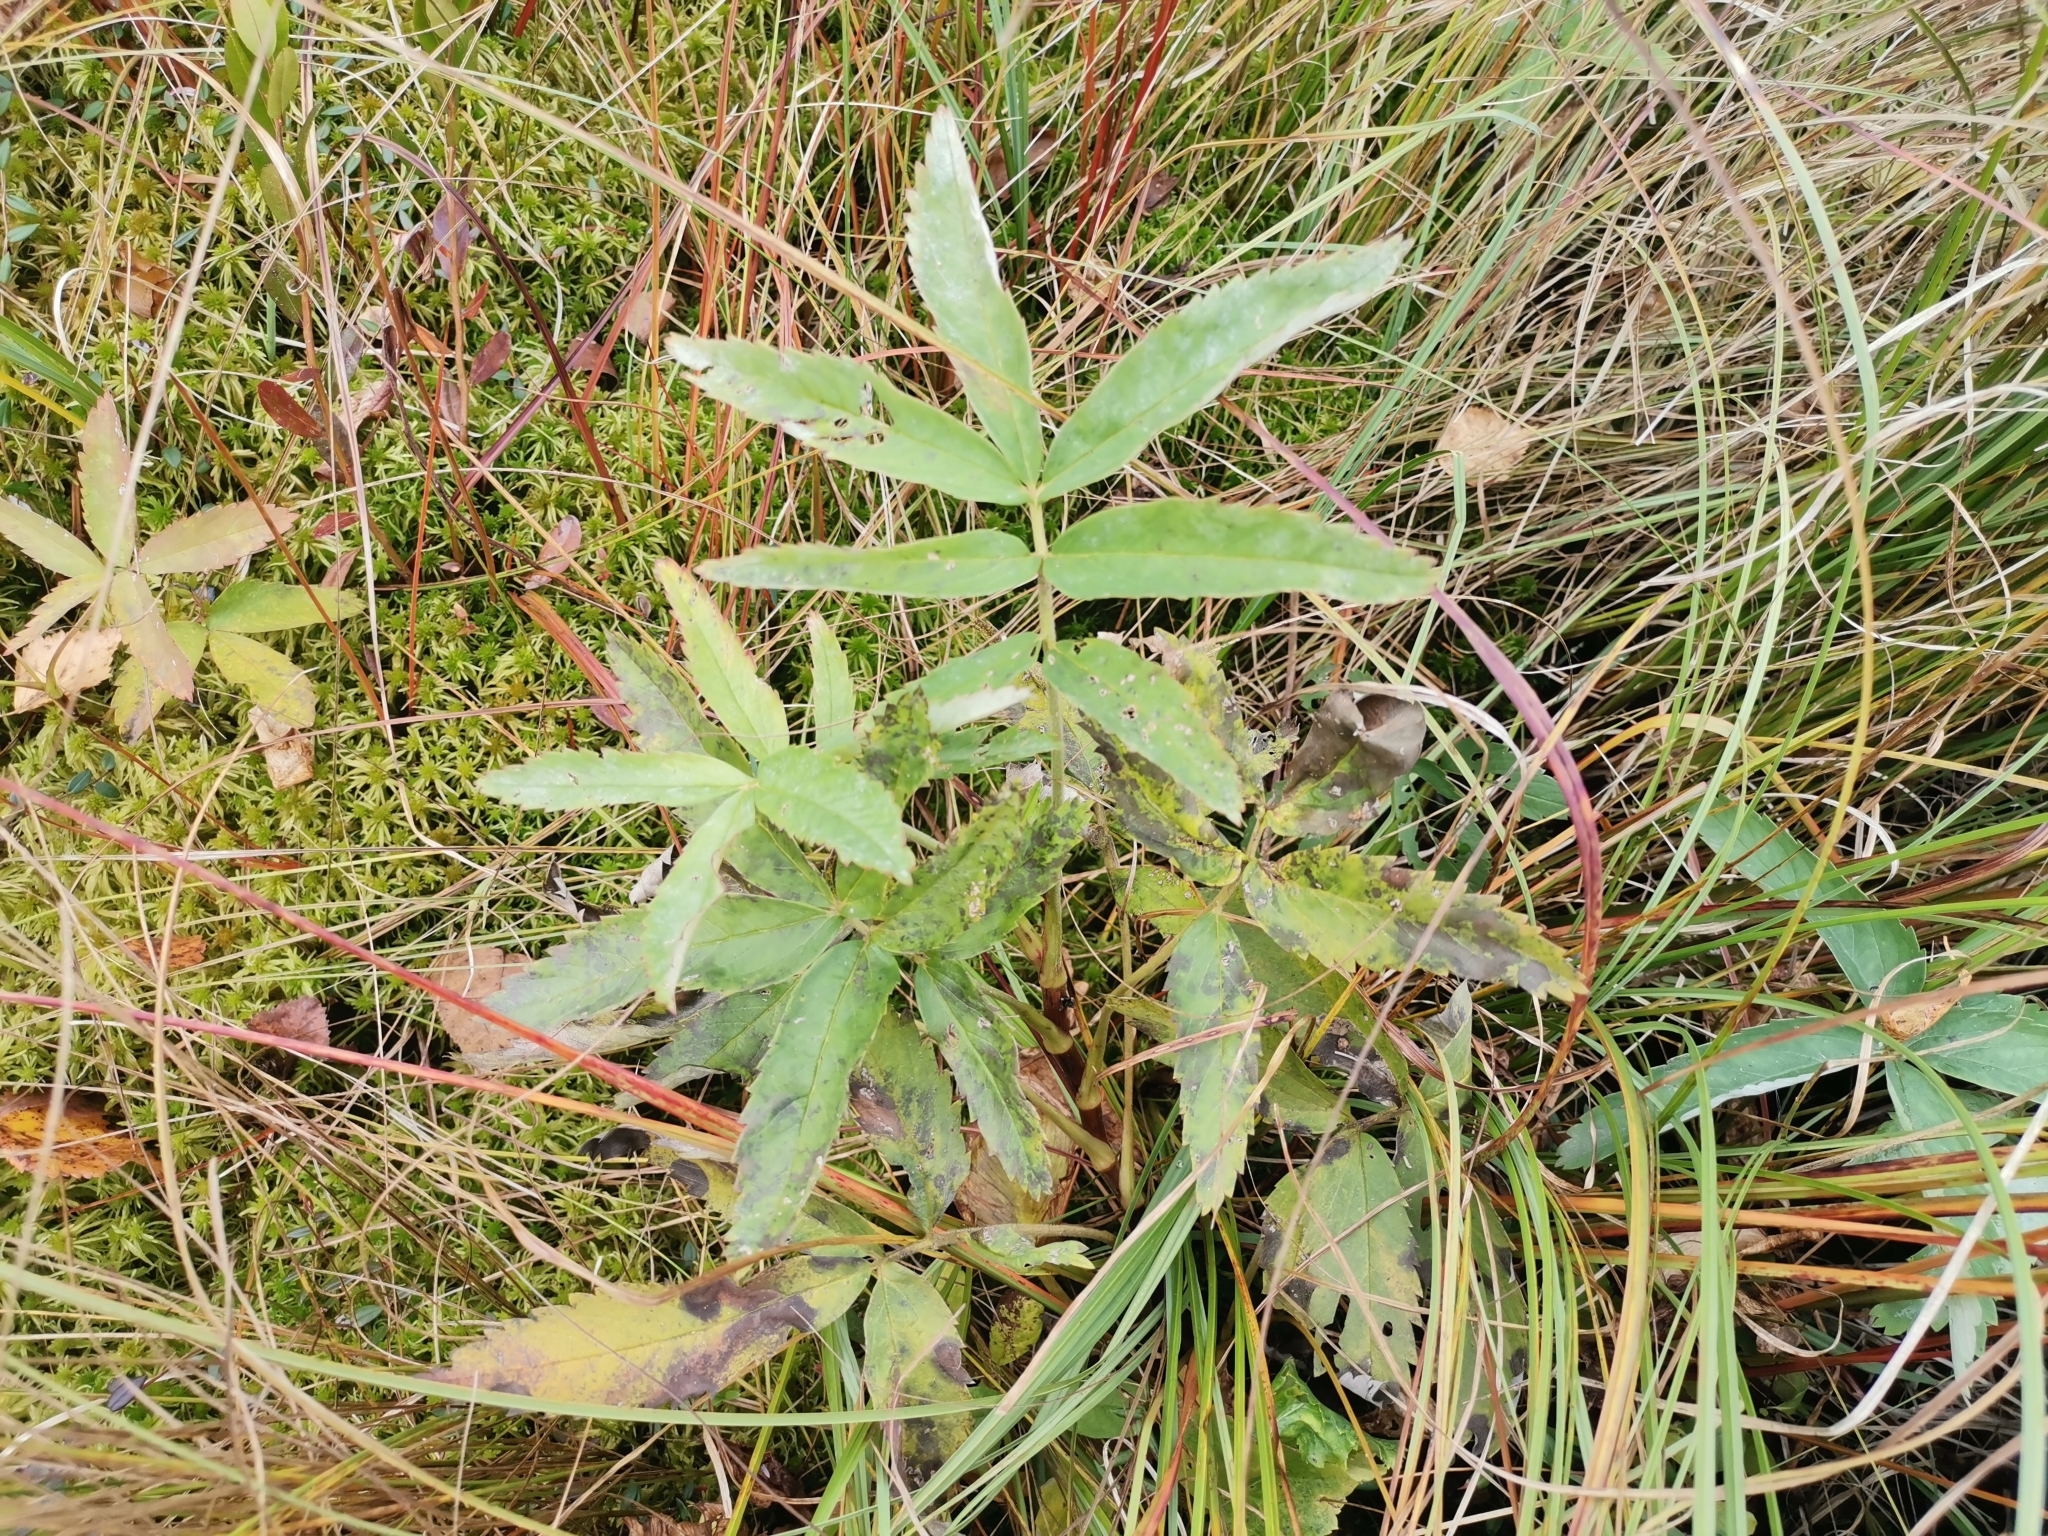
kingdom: Plantae
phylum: Tracheophyta
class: Magnoliopsida
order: Rosales
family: Rosaceae
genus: Comarum
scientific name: Comarum palustre
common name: Marsh cinquefoil
